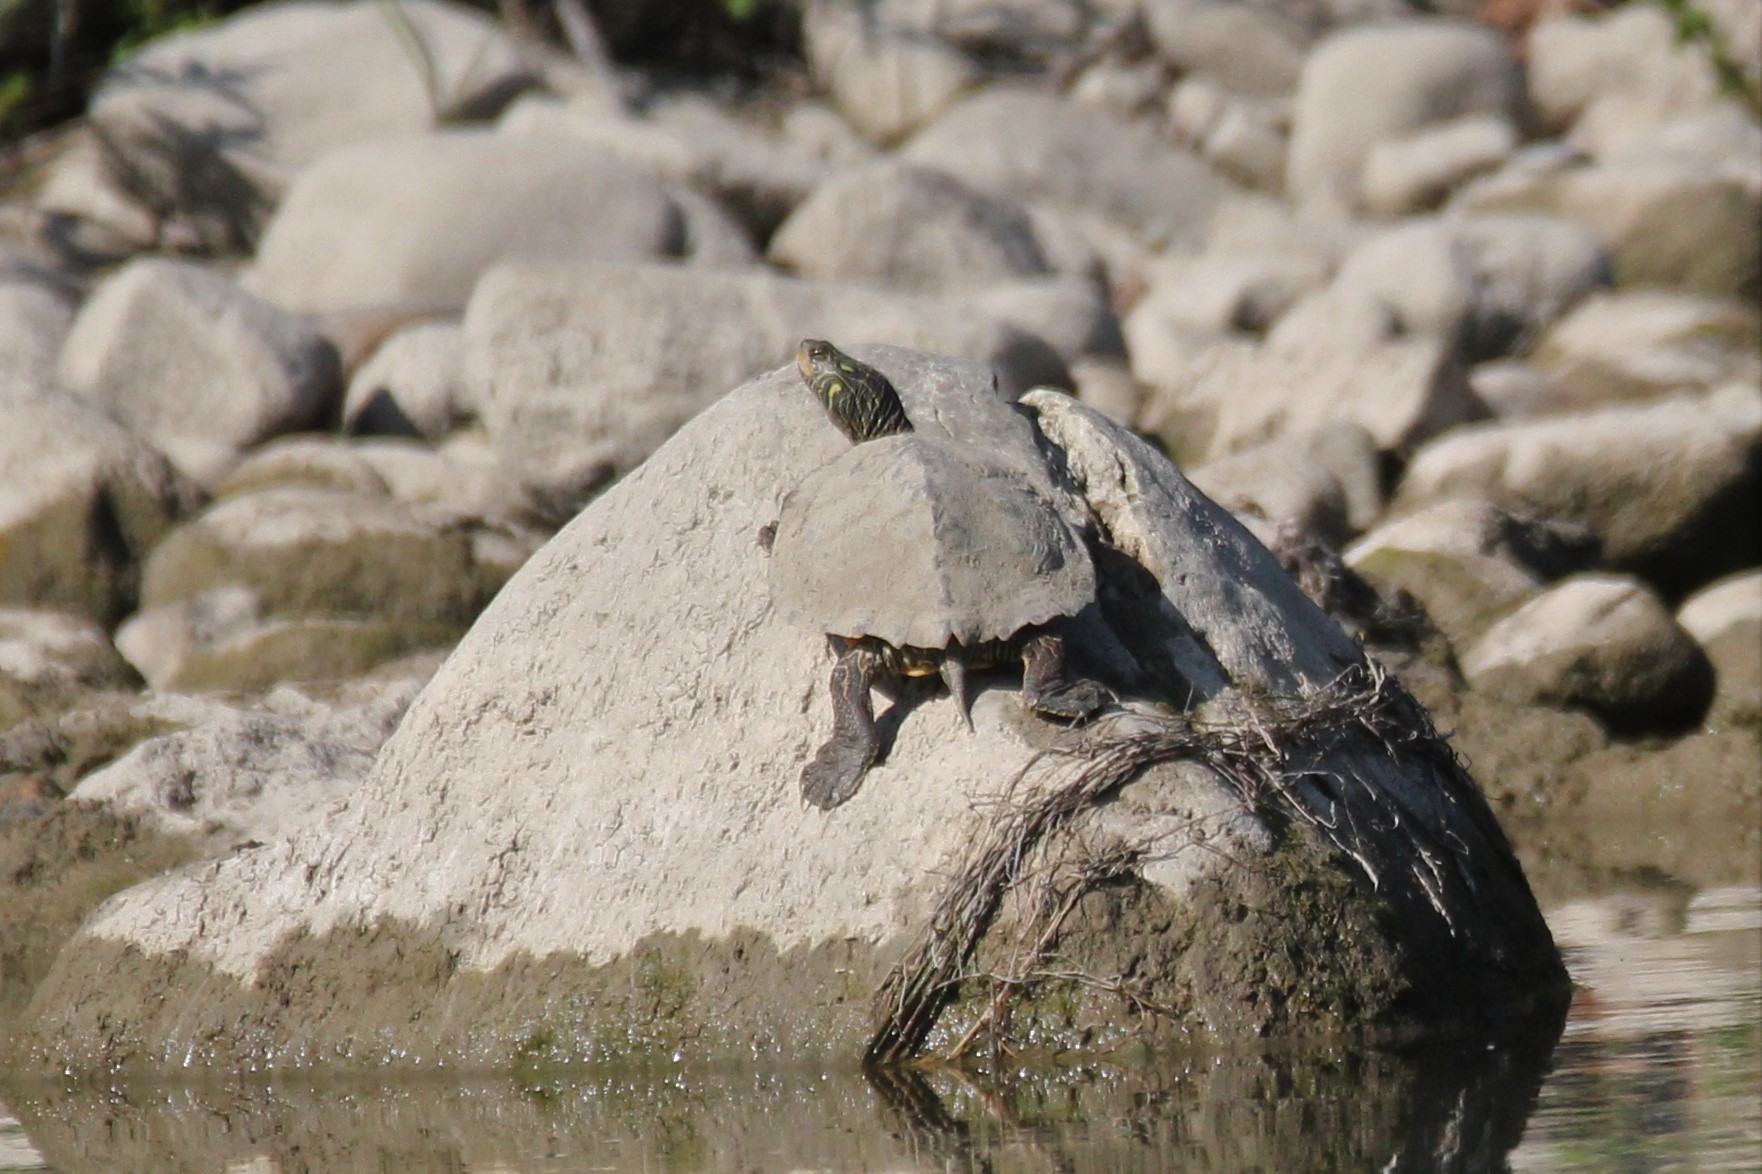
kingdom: Animalia
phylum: Chordata
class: Testudines
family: Emydidae
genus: Graptemys
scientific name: Graptemys geographica
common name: Common map turtle
